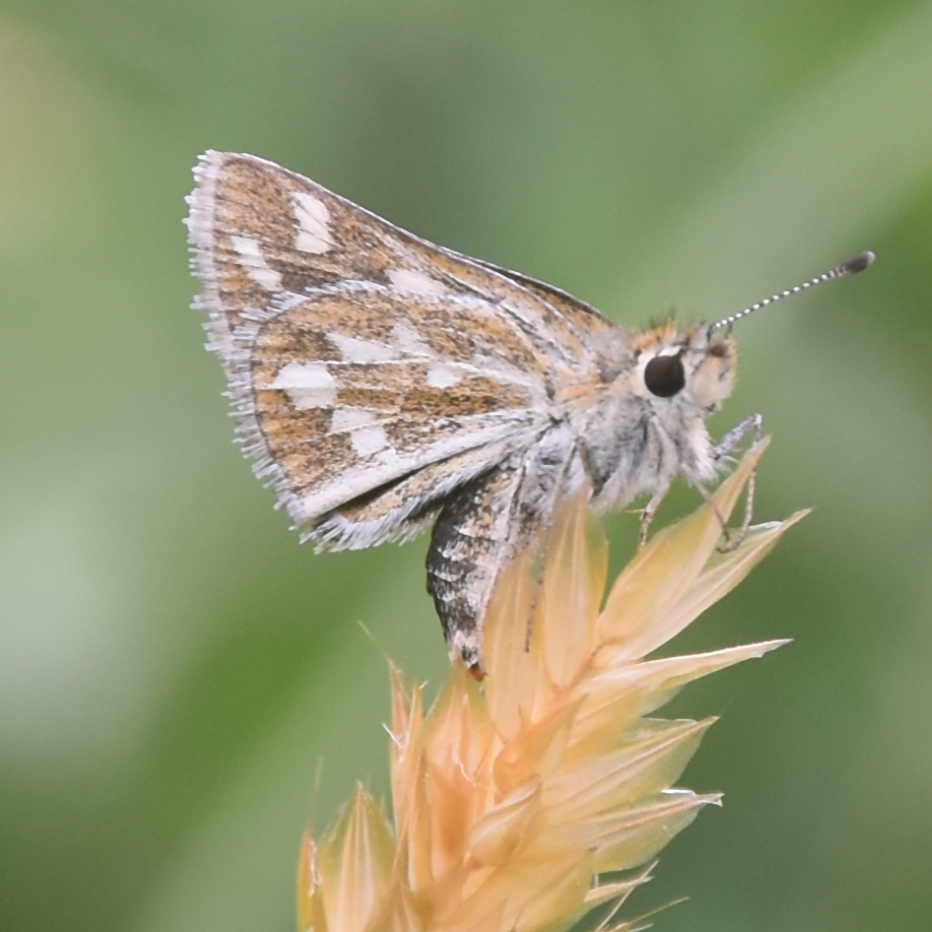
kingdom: Animalia
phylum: Arthropoda
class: Insecta
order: Lepidoptera
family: Hesperiidae
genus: Taractrocera
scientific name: Taractrocera danna
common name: Himalayan grass dart
